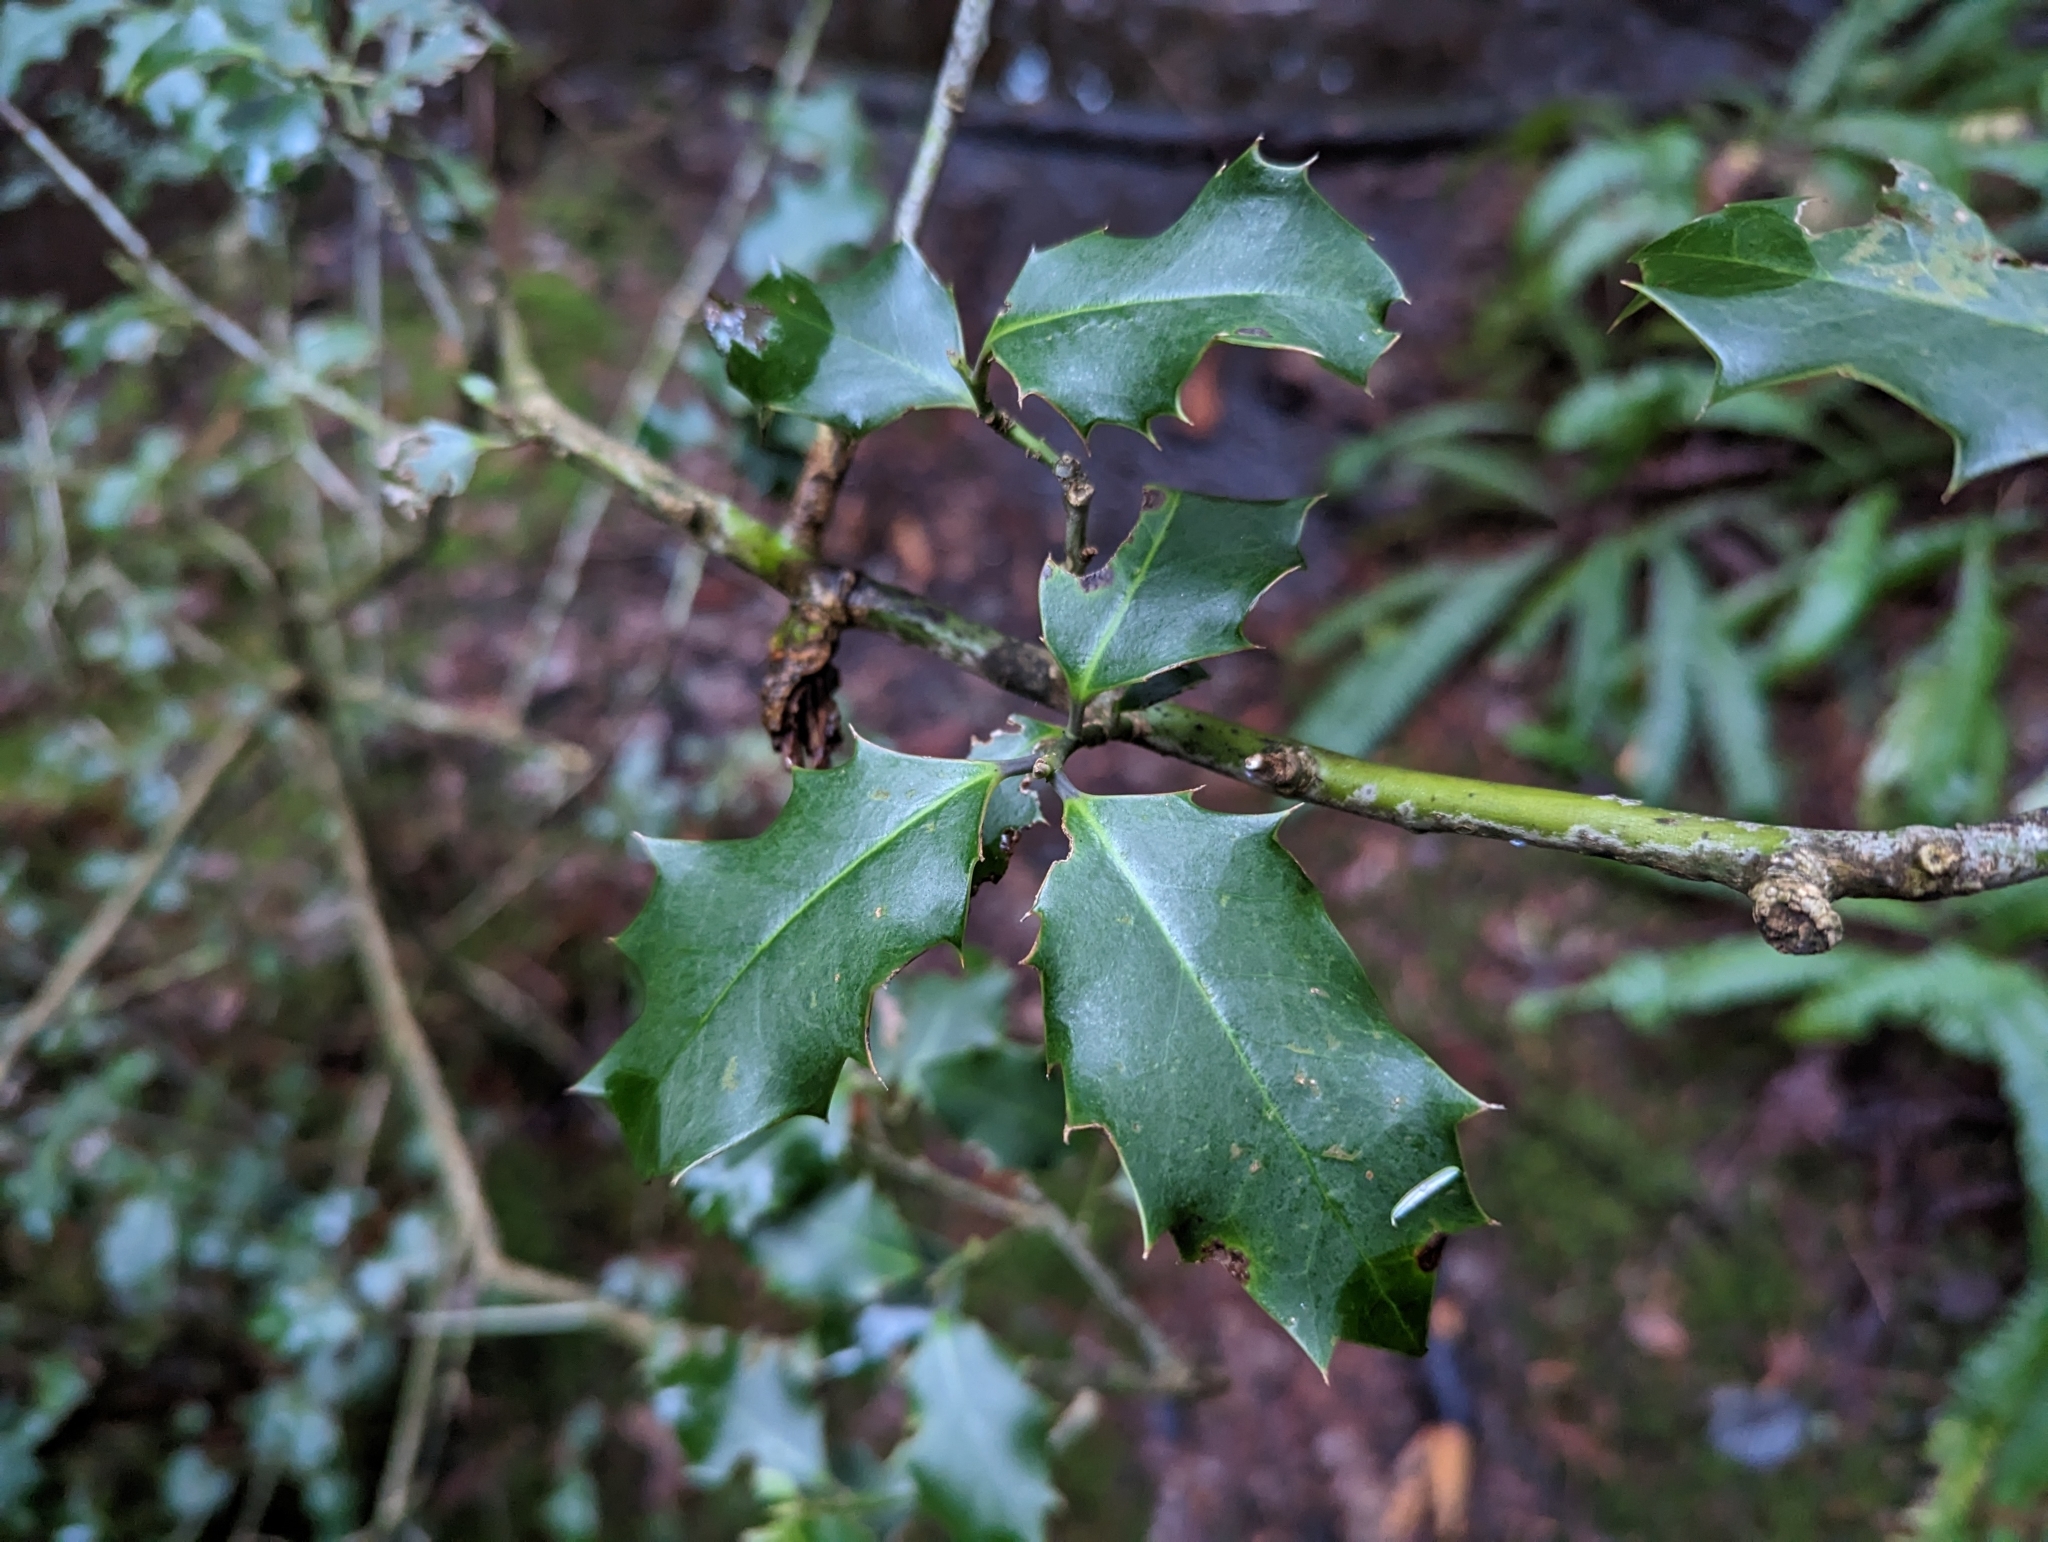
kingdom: Plantae
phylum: Tracheophyta
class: Magnoliopsida
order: Aquifoliales
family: Aquifoliaceae
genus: Ilex
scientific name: Ilex aquifolium
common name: English holly
